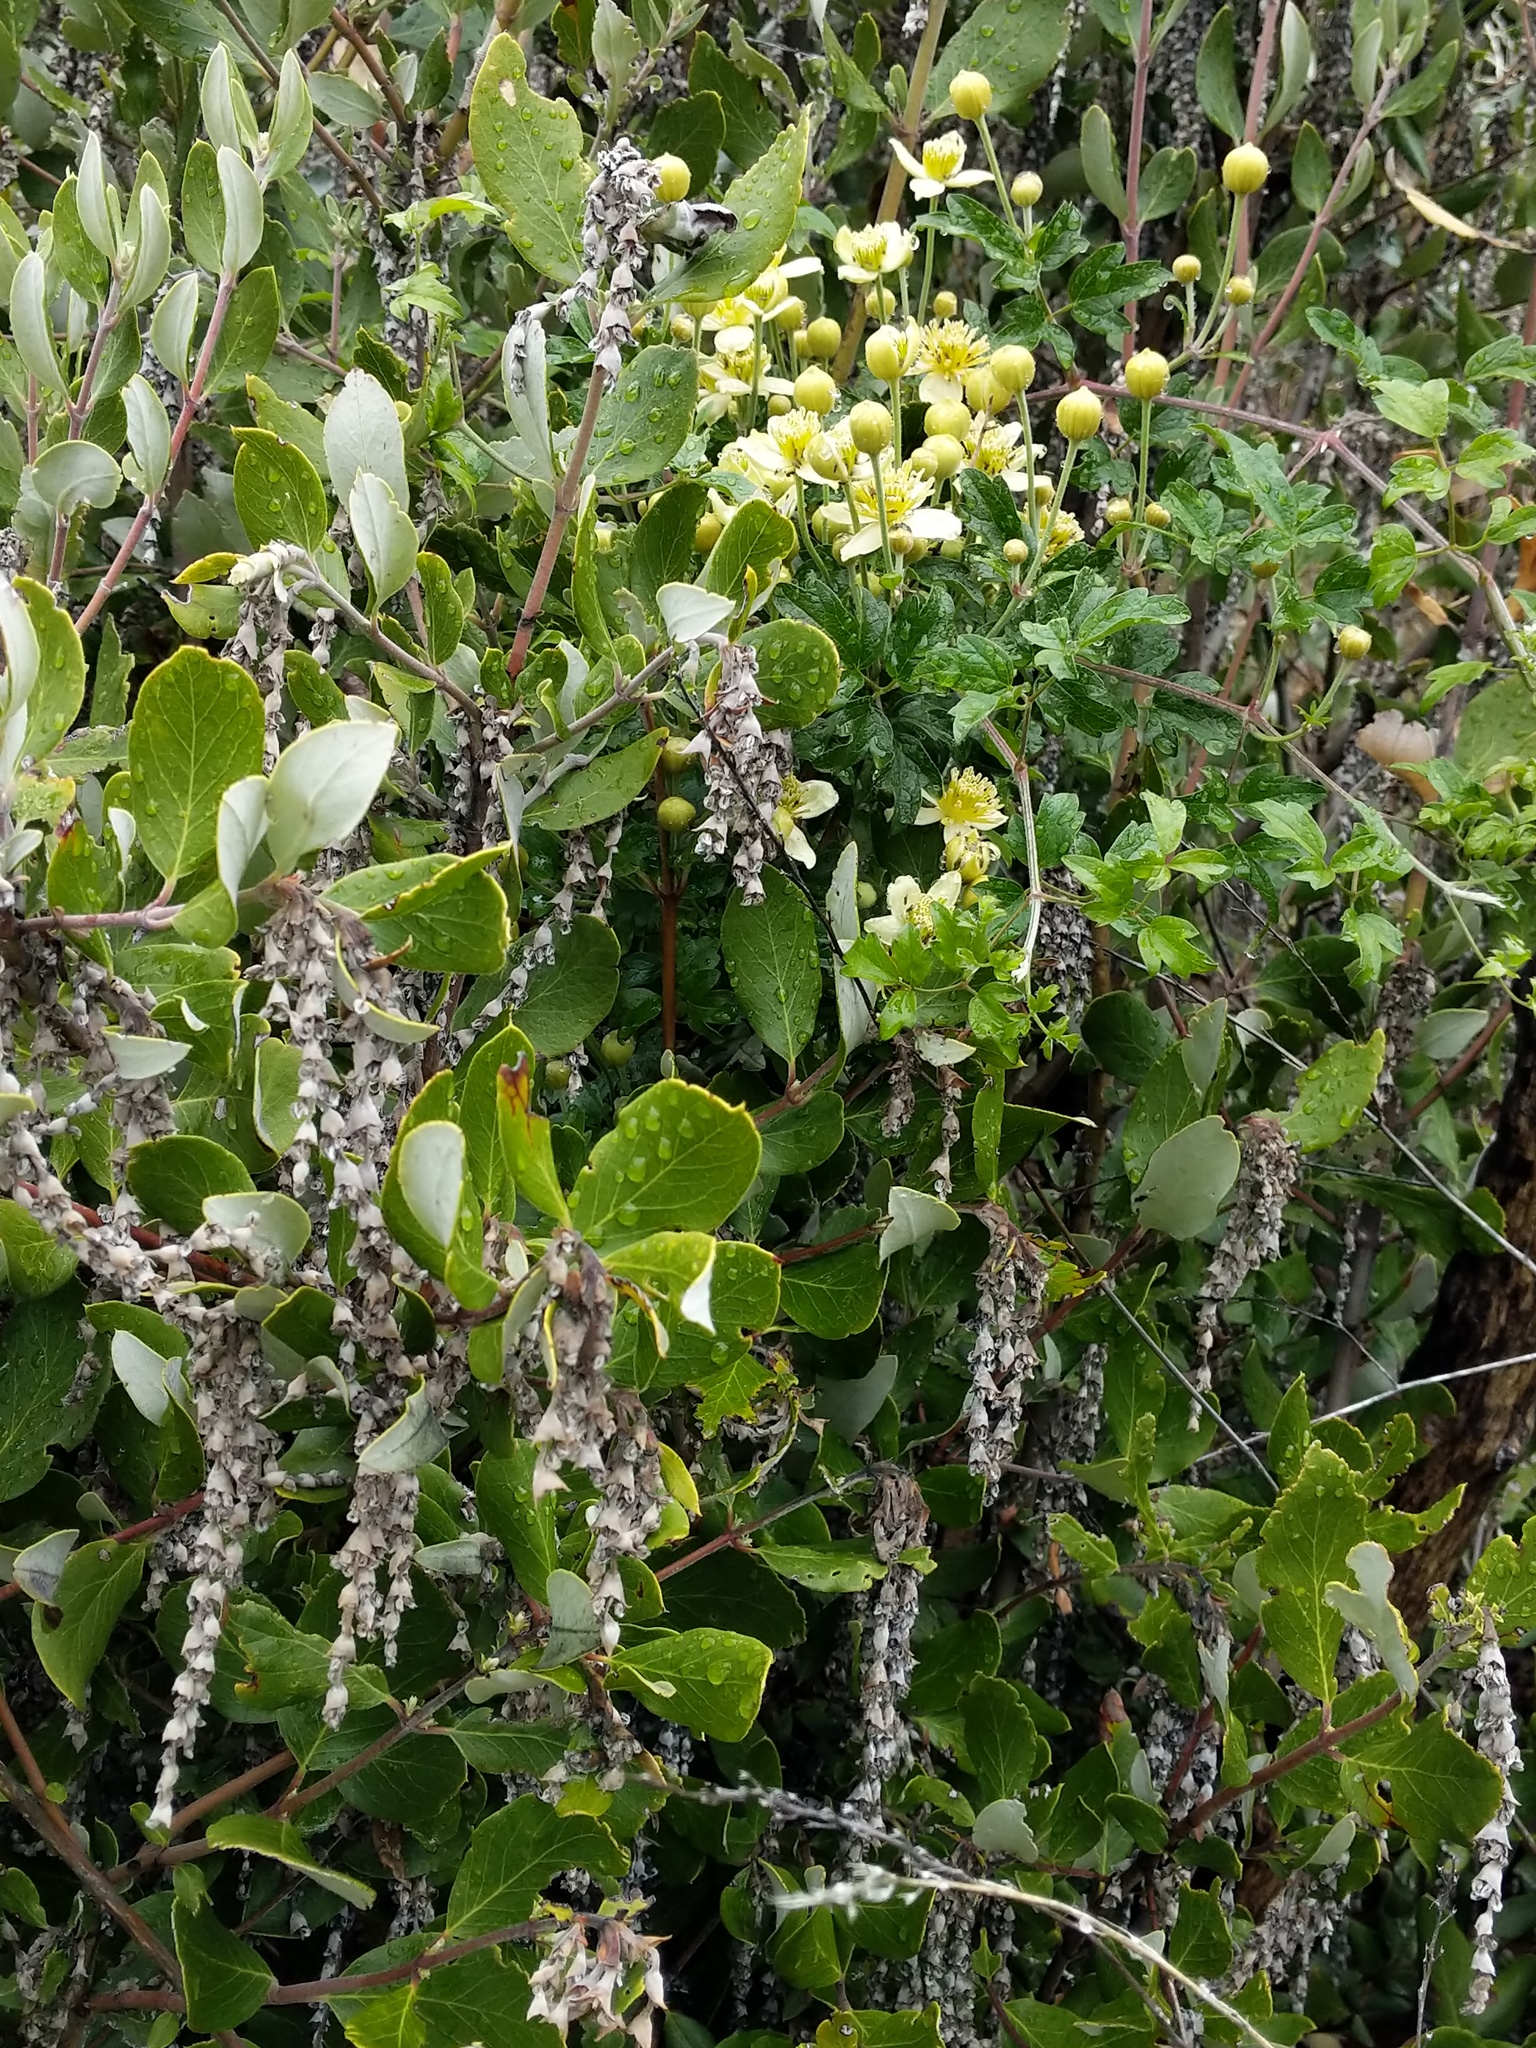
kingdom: Plantae
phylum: Tracheophyta
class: Magnoliopsida
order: Garryales
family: Garryaceae
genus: Garrya
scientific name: Garrya veatchii
